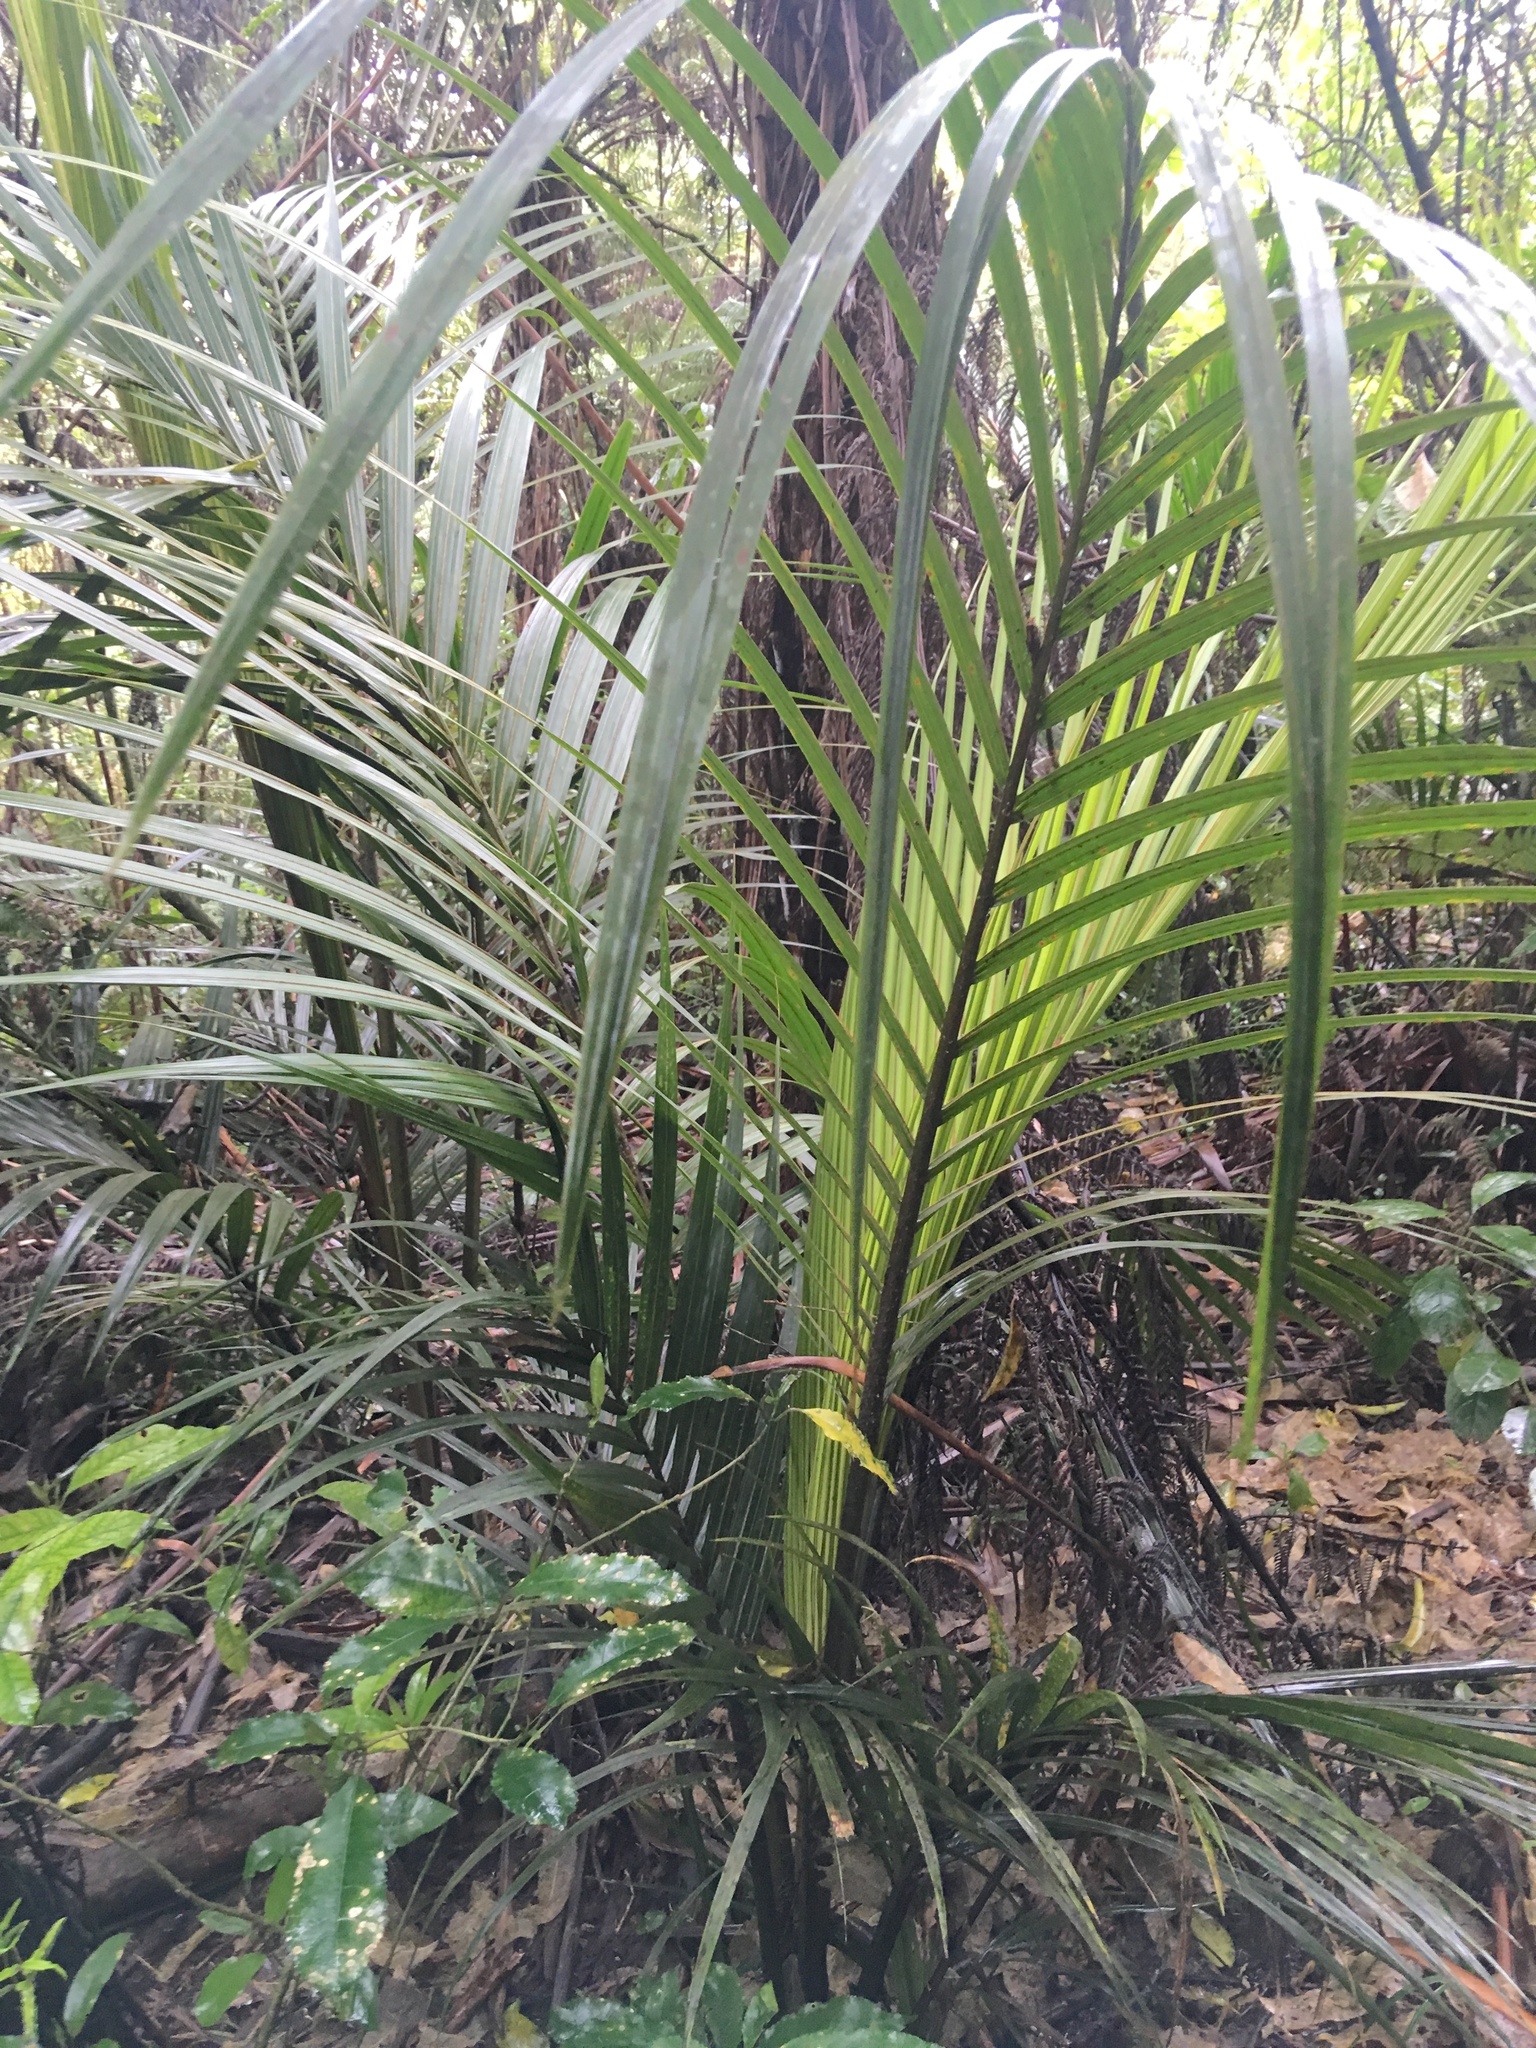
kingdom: Plantae
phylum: Tracheophyta
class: Liliopsida
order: Arecales
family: Arecaceae
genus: Rhopalostylis
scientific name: Rhopalostylis sapida
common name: Feather-duster palm
